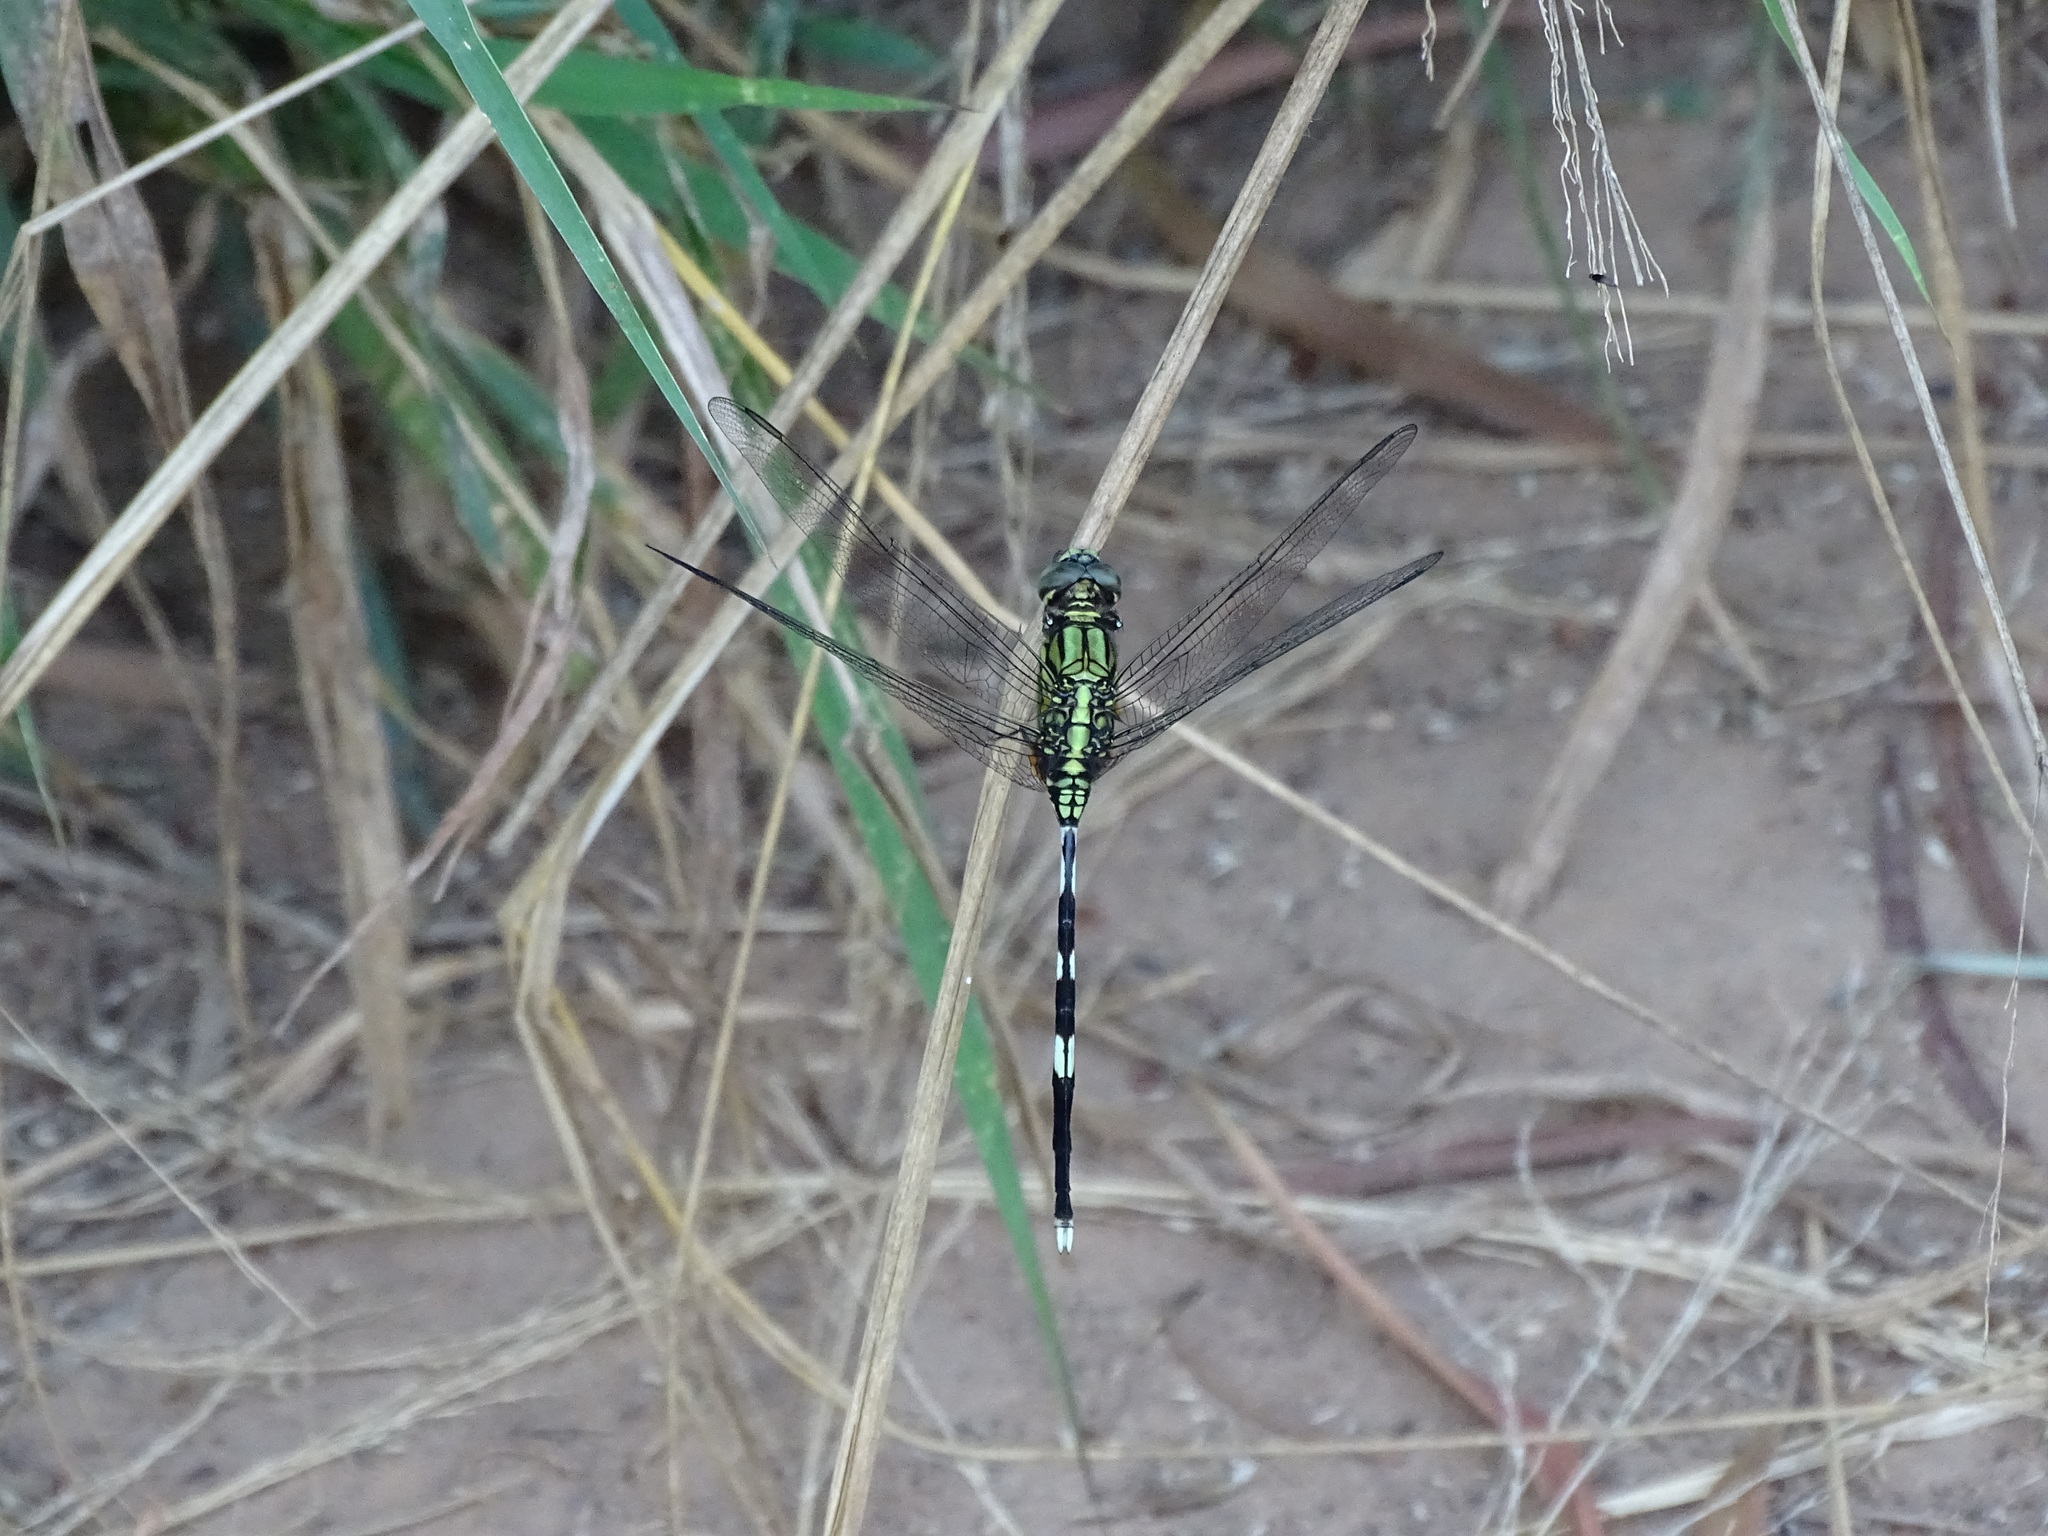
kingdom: Animalia
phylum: Arthropoda
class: Insecta
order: Odonata
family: Libellulidae
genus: Orthetrum
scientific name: Orthetrum sabina
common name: Slender skimmer
